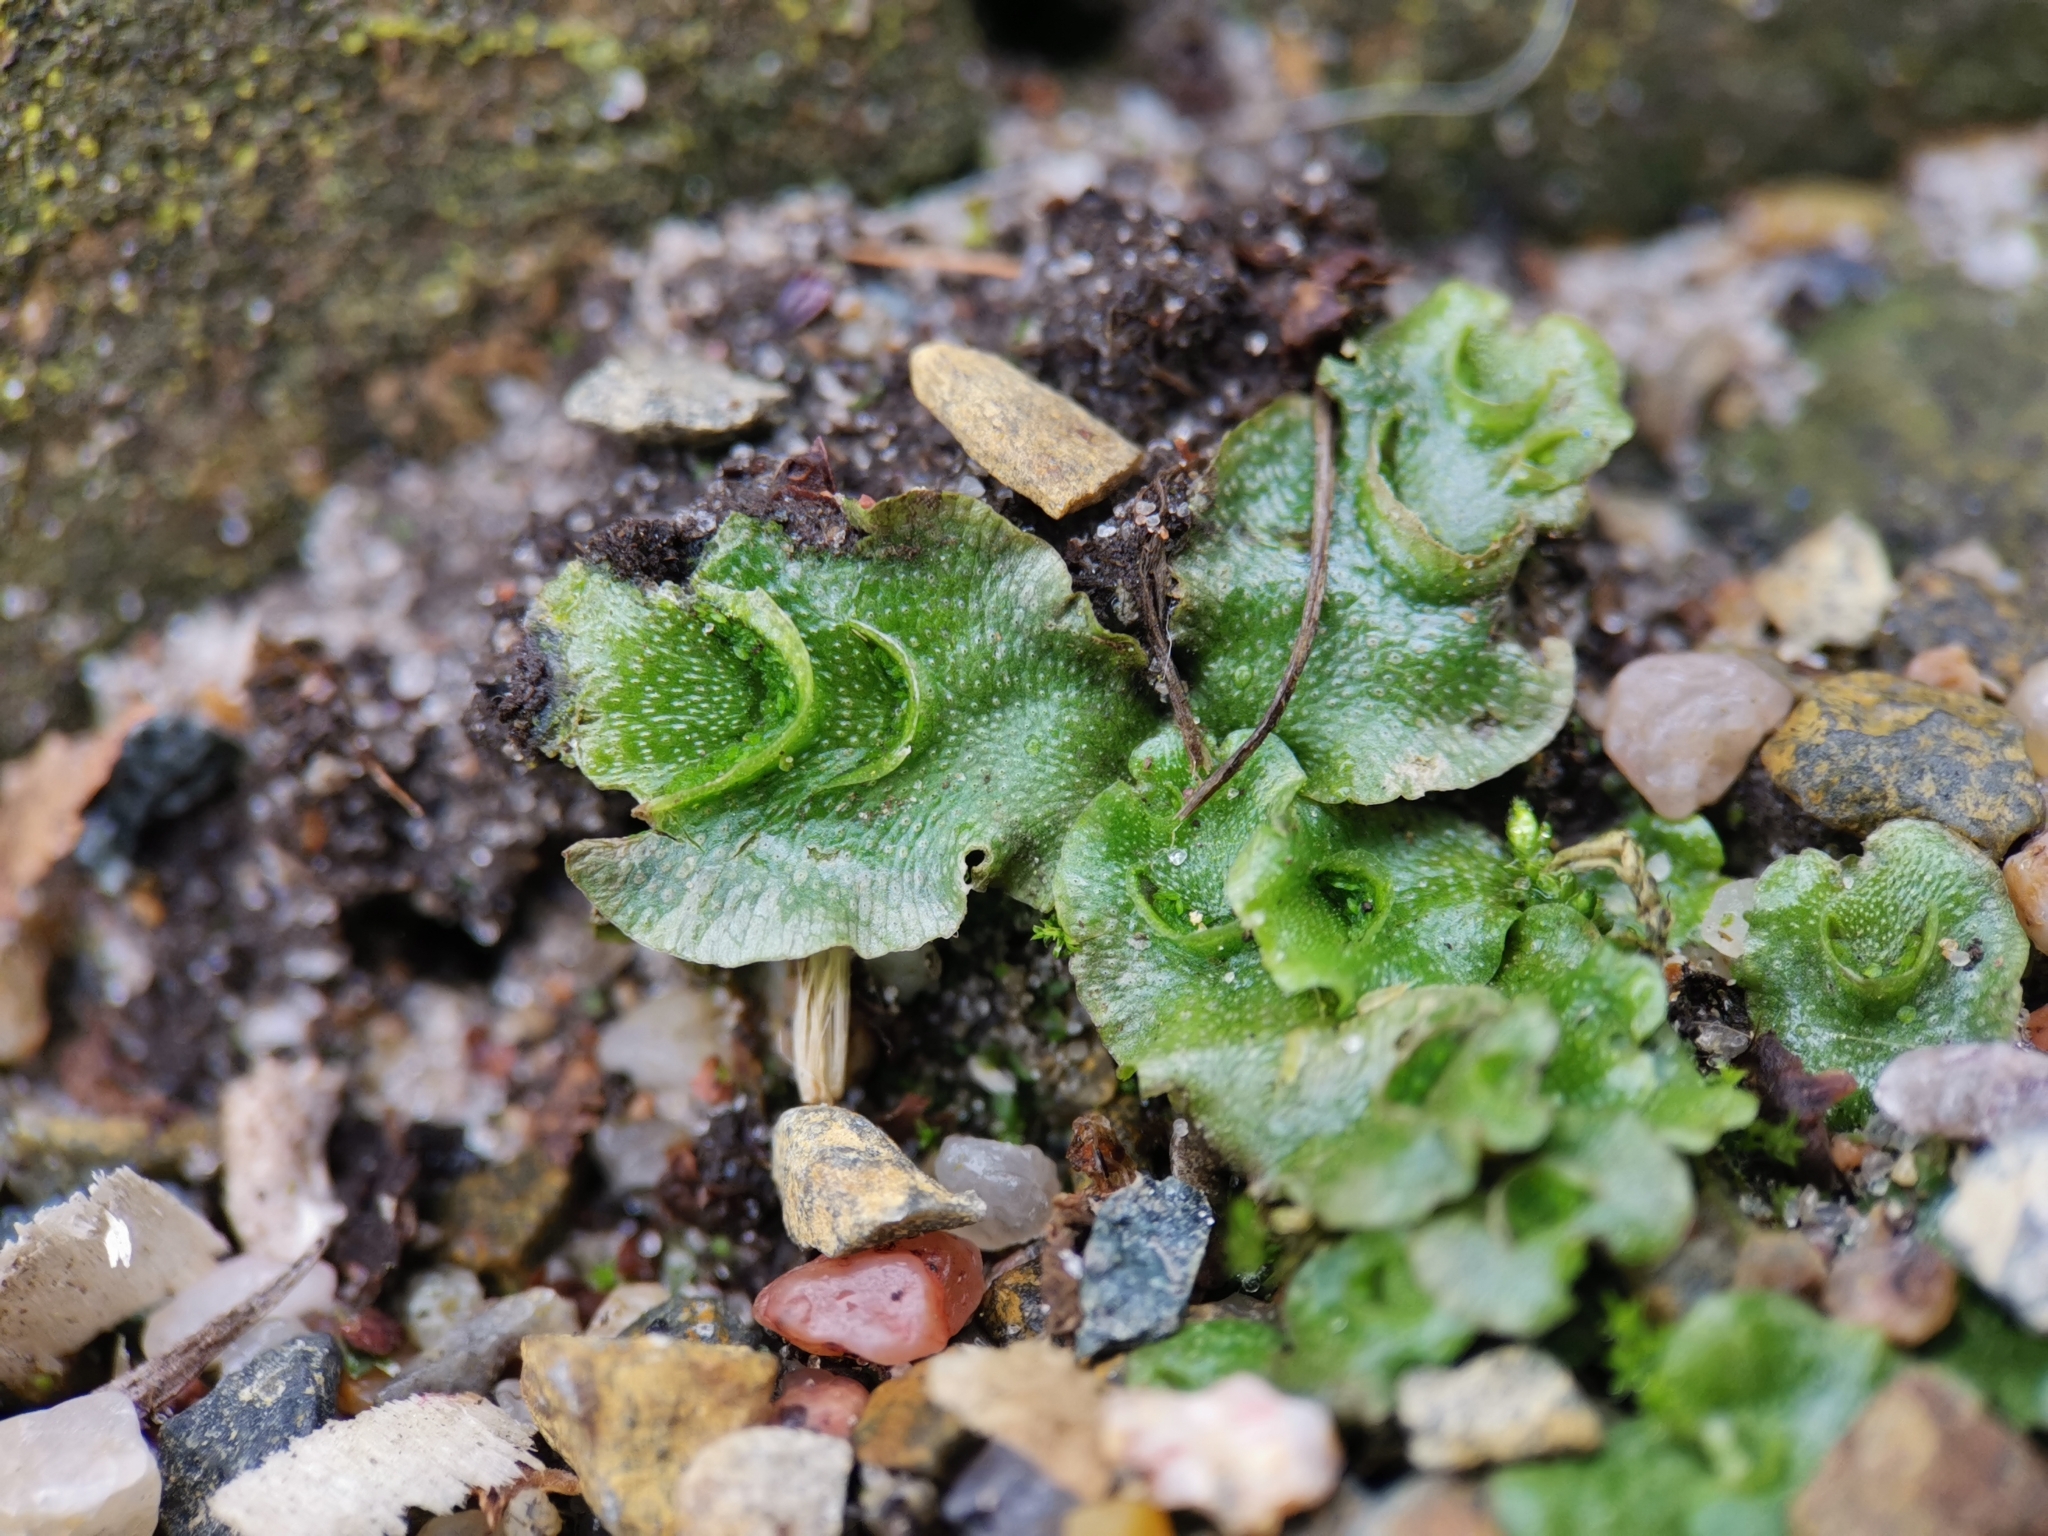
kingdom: Plantae
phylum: Marchantiophyta
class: Marchantiopsida
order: Lunulariales
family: Lunulariaceae
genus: Lunularia
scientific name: Lunularia cruciata
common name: Crescent-cup liverwort
